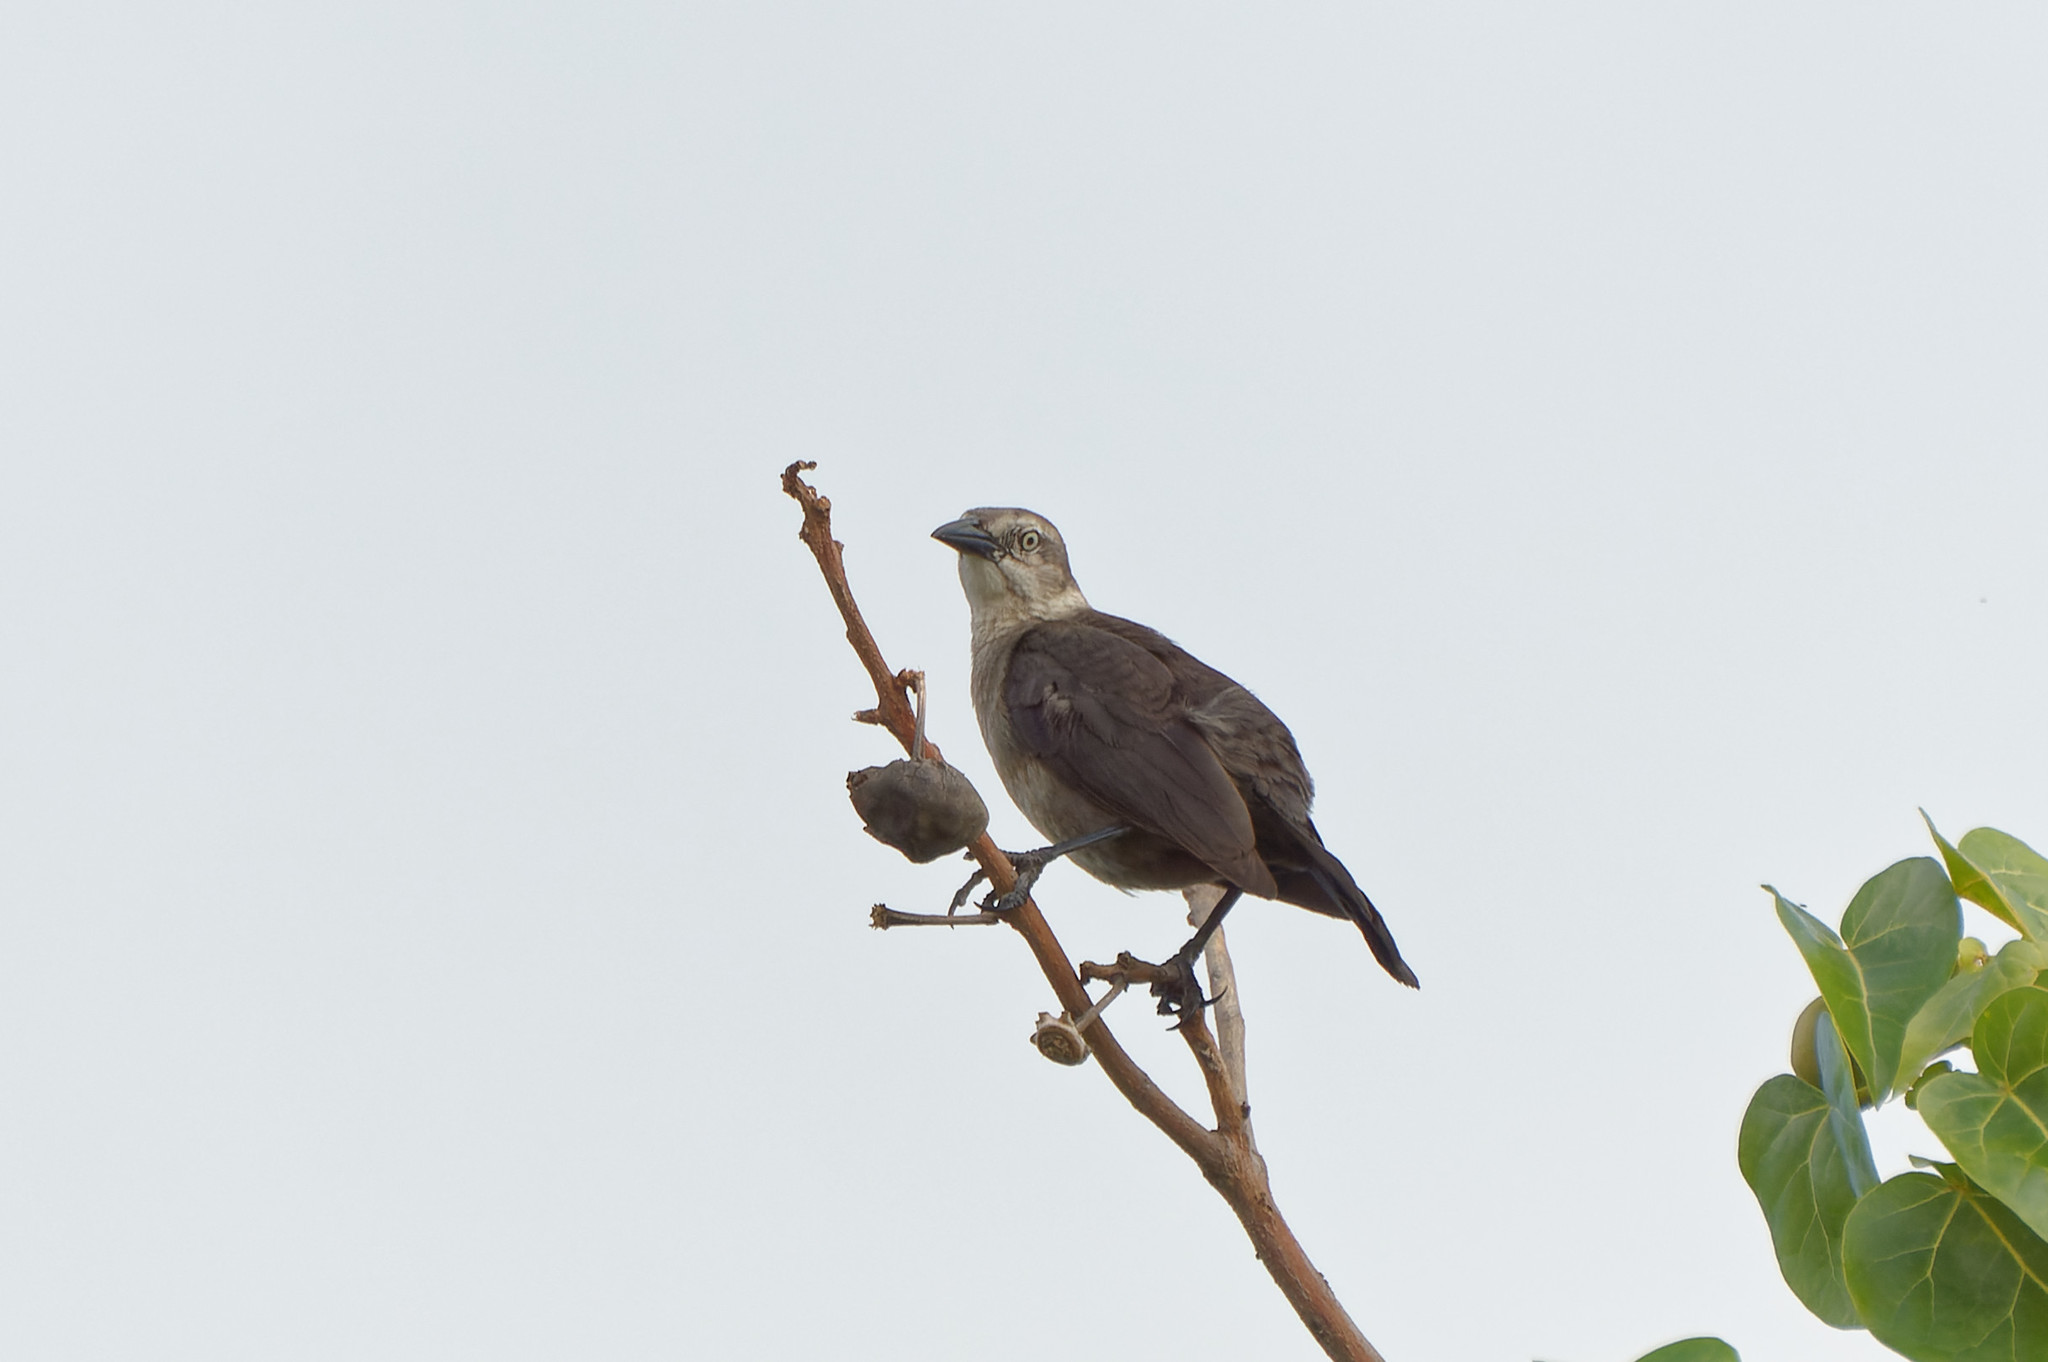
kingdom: Animalia
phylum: Chordata
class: Aves
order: Passeriformes
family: Icteridae
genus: Quiscalus
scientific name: Quiscalus lugubris
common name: Carib grackle
